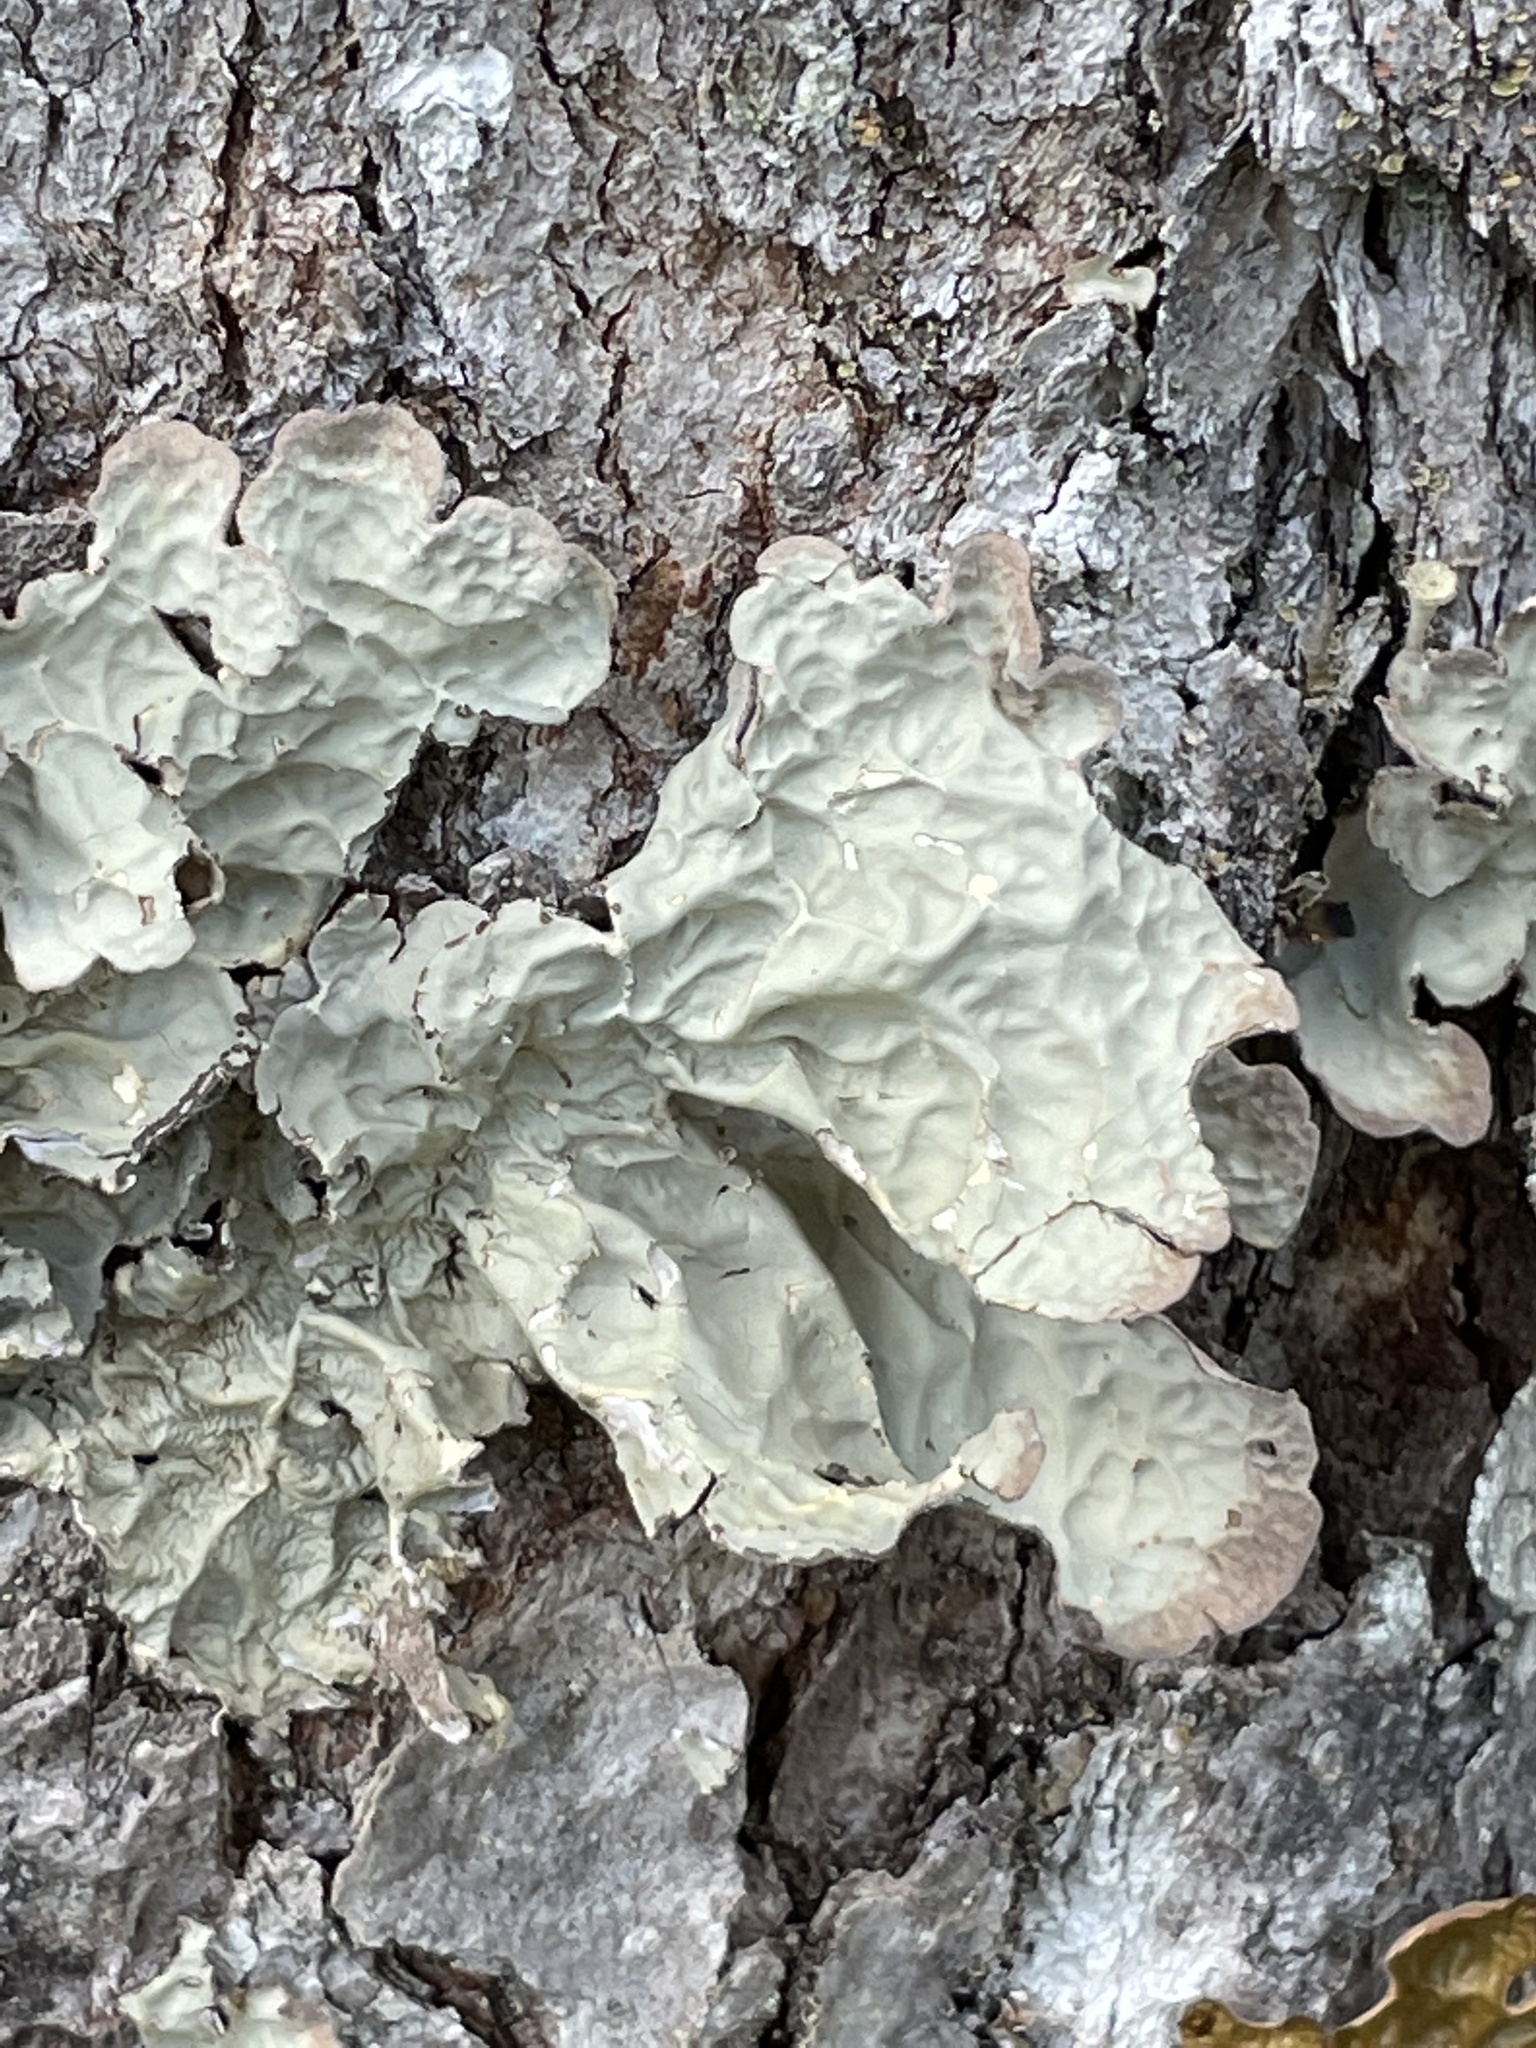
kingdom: Fungi
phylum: Ascomycota
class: Lecanoromycetes
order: Peltigerales
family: Lobariaceae
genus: Lobarina
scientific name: Lobarina scrobiculata
